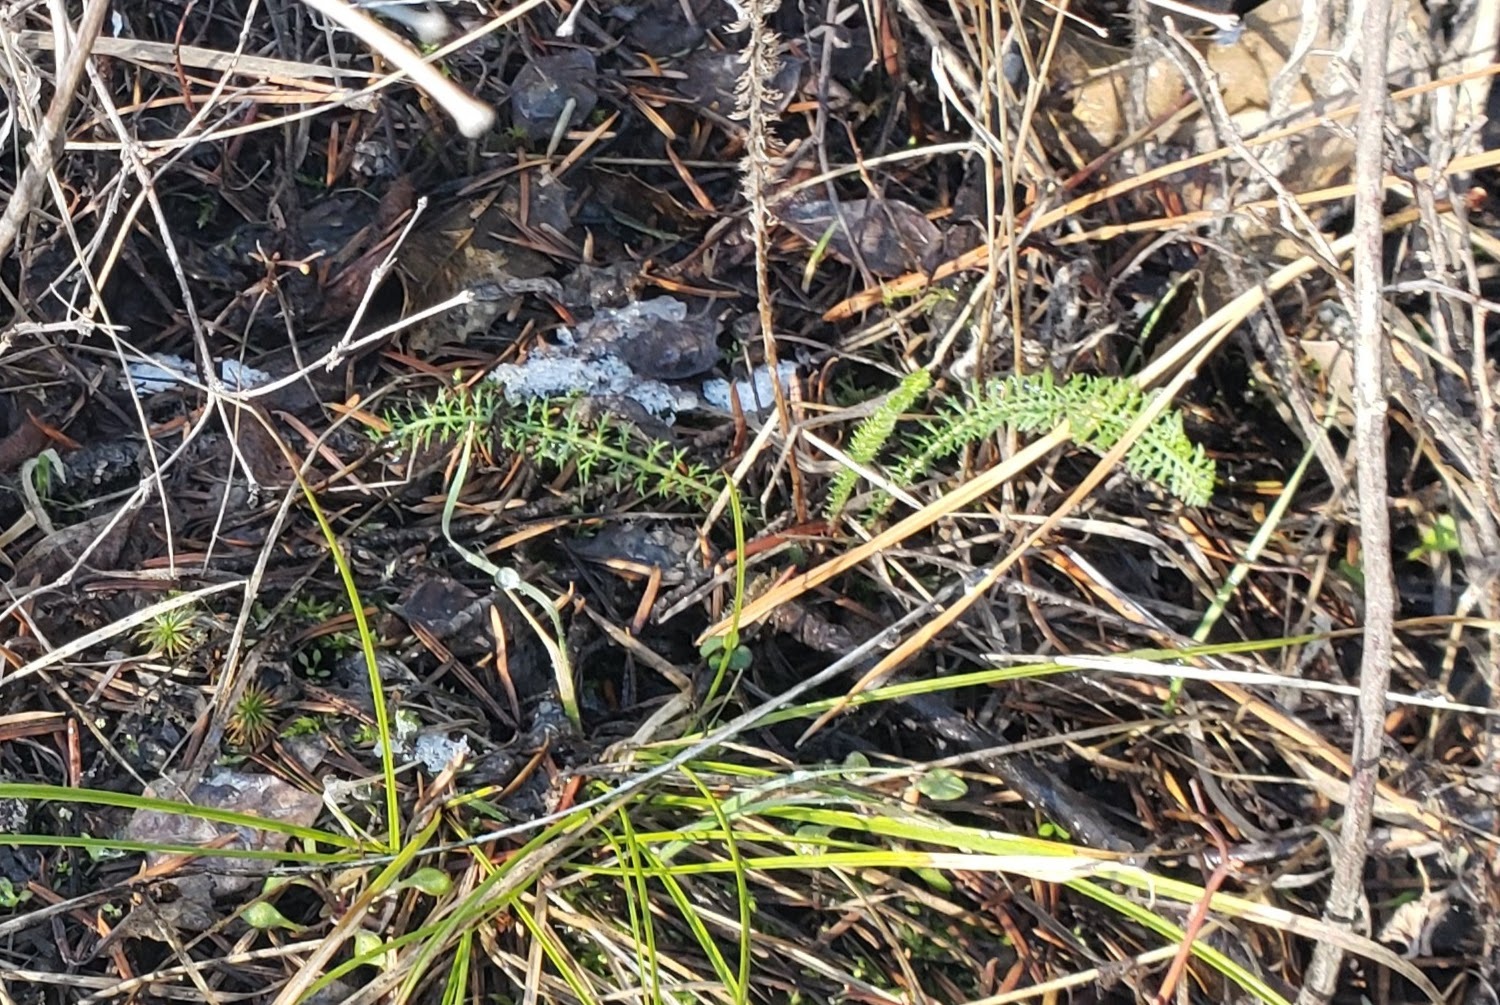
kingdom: Plantae
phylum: Tracheophyta
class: Magnoliopsida
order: Asterales
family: Asteraceae
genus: Achillea
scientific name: Achillea millefolium
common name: Yarrow
